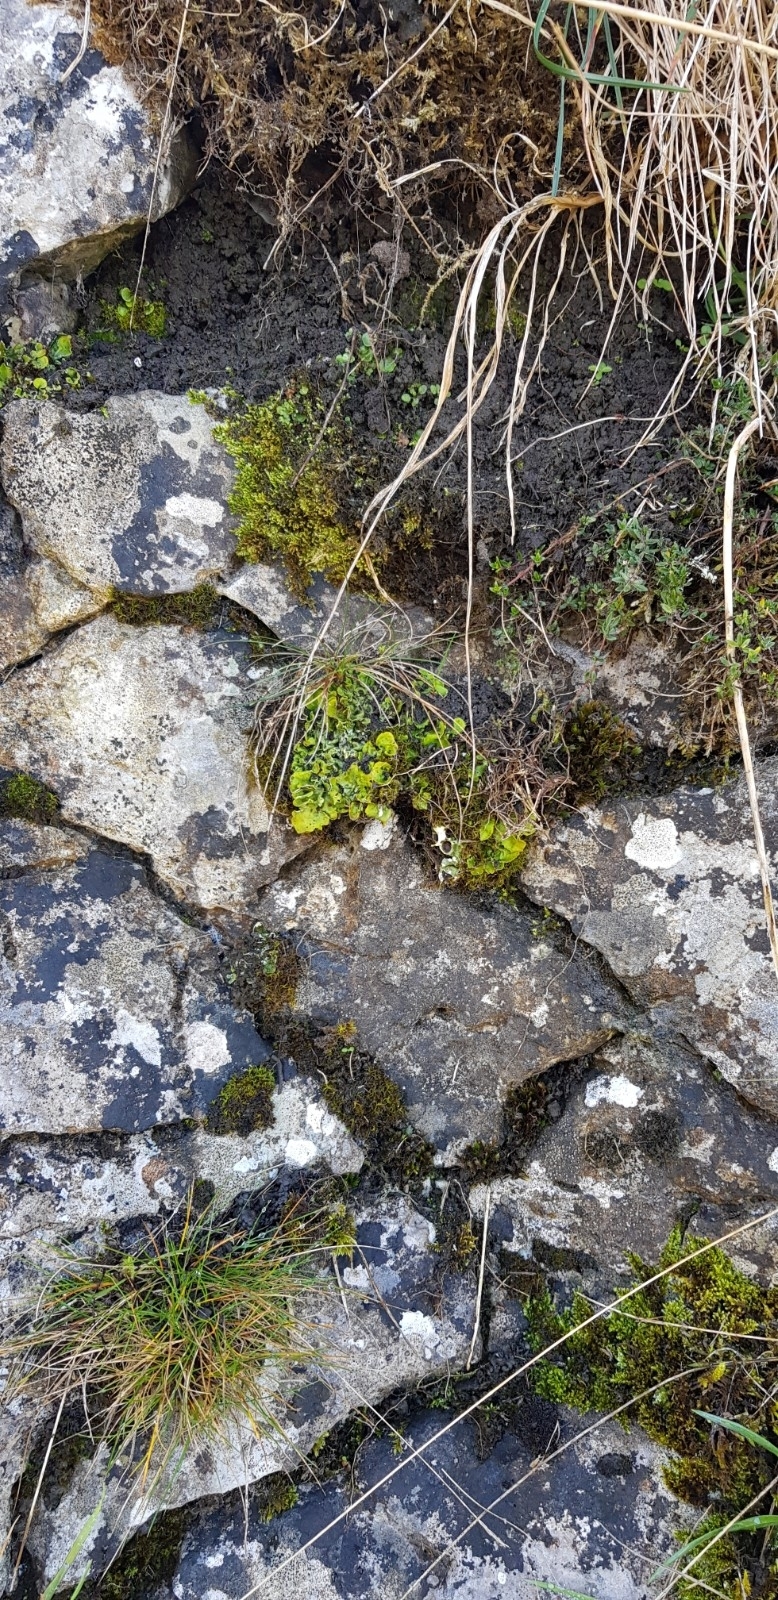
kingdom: Fungi
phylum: Ascomycota
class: Lecanoromycetes
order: Peltigerales
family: Peltigeraceae
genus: Solorina
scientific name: Solorina saccata
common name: Common chocolate chip lichen
